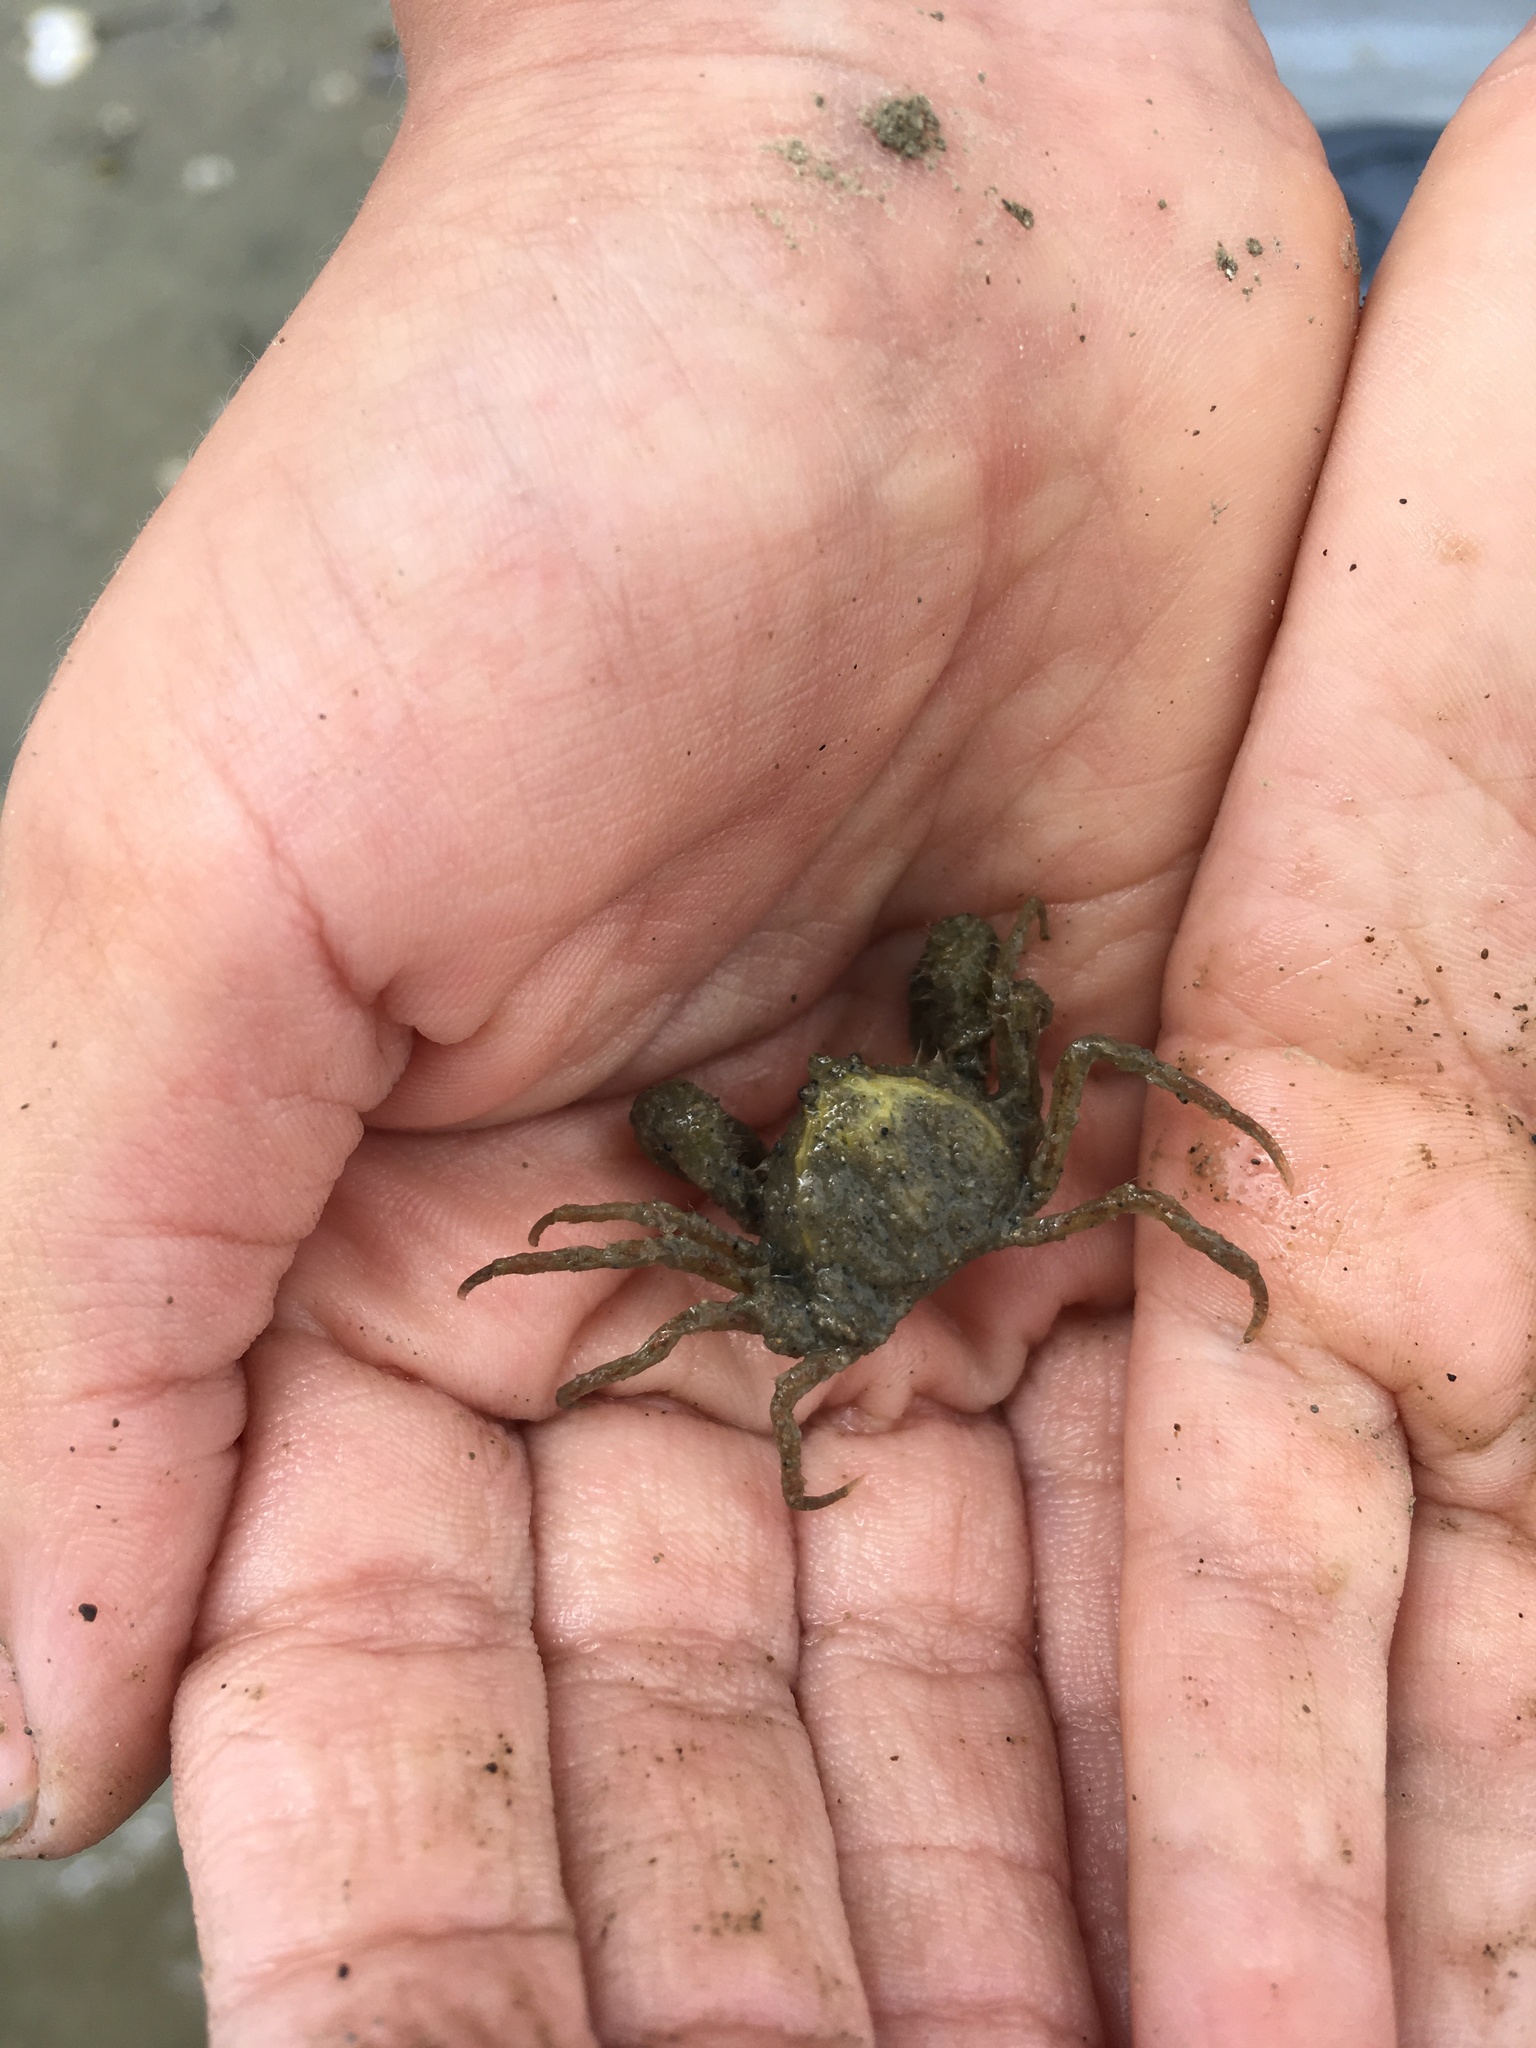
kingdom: Animalia
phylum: Arthropoda
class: Malacostraca
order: Decapoda
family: Hymenosomatidae
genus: Halicarcinus
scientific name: Halicarcinus whitei
